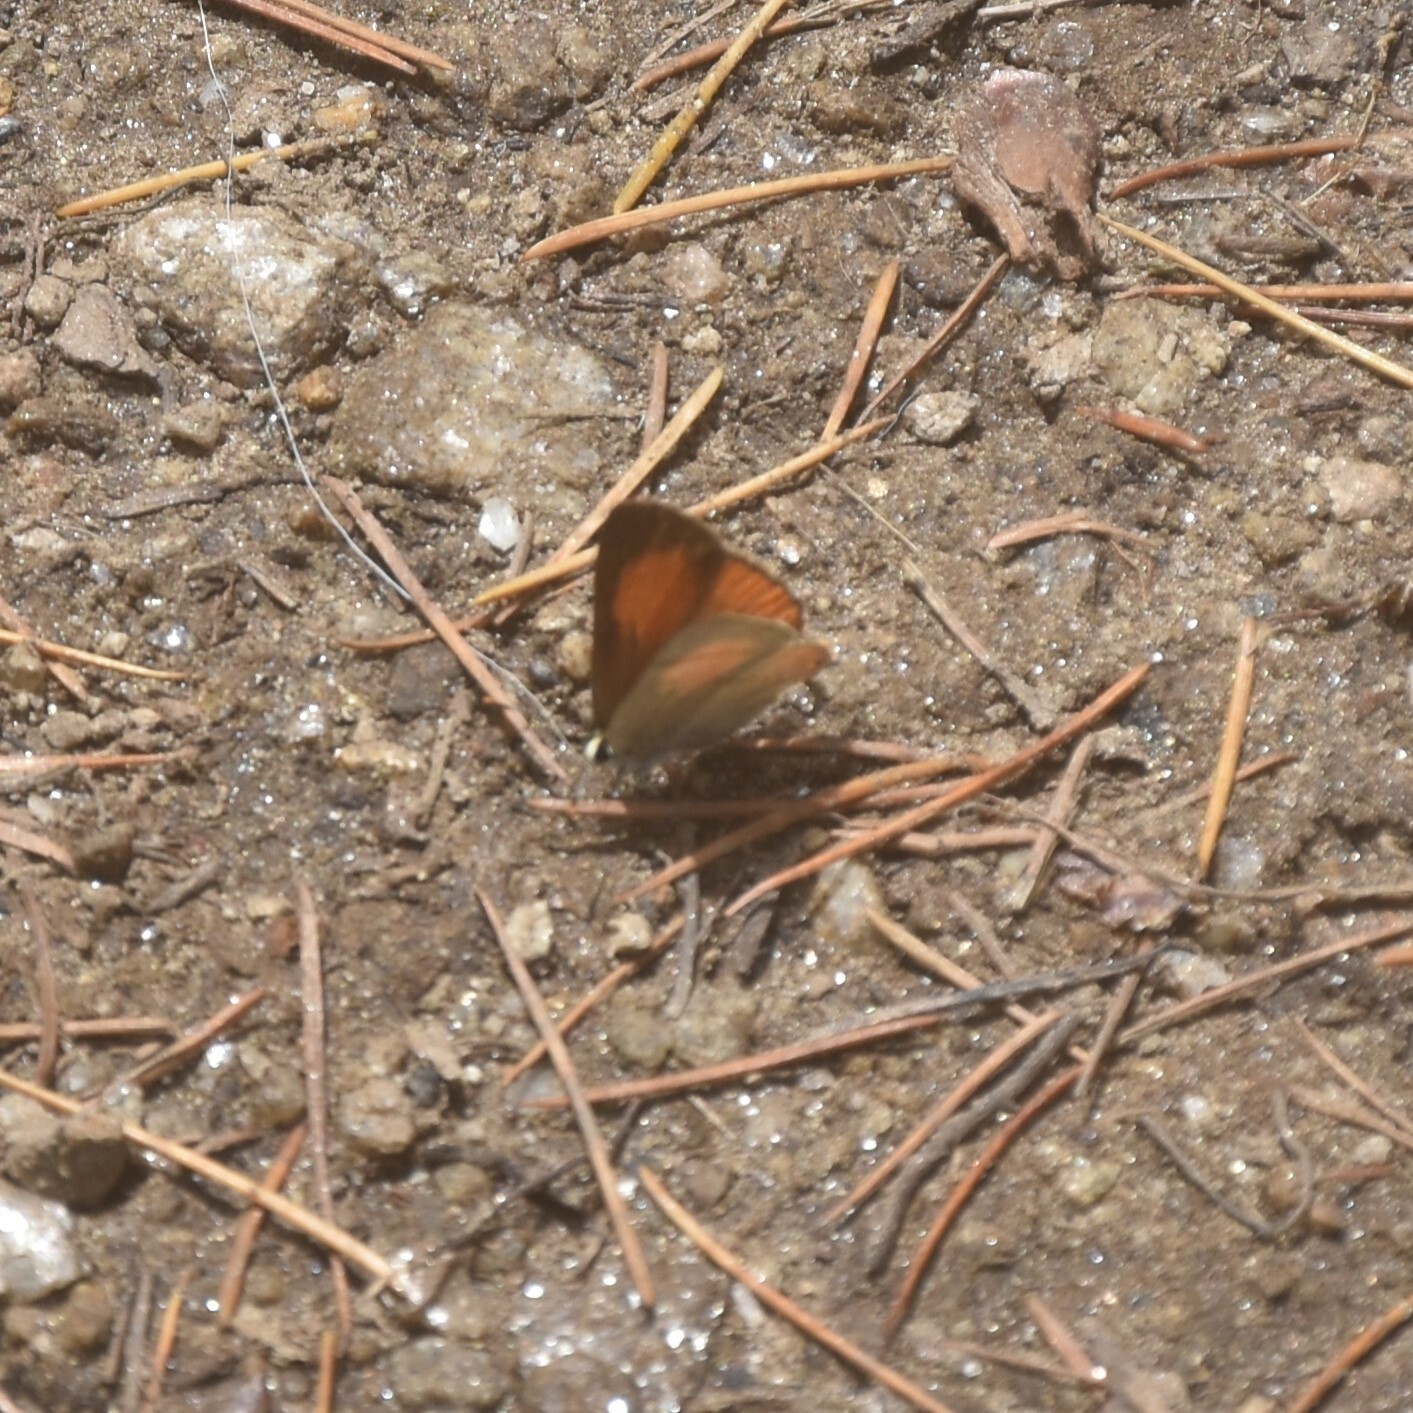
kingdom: Animalia
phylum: Arthropoda
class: Insecta
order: Lepidoptera
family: Lycaenidae
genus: Rapala
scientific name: Rapala selira
